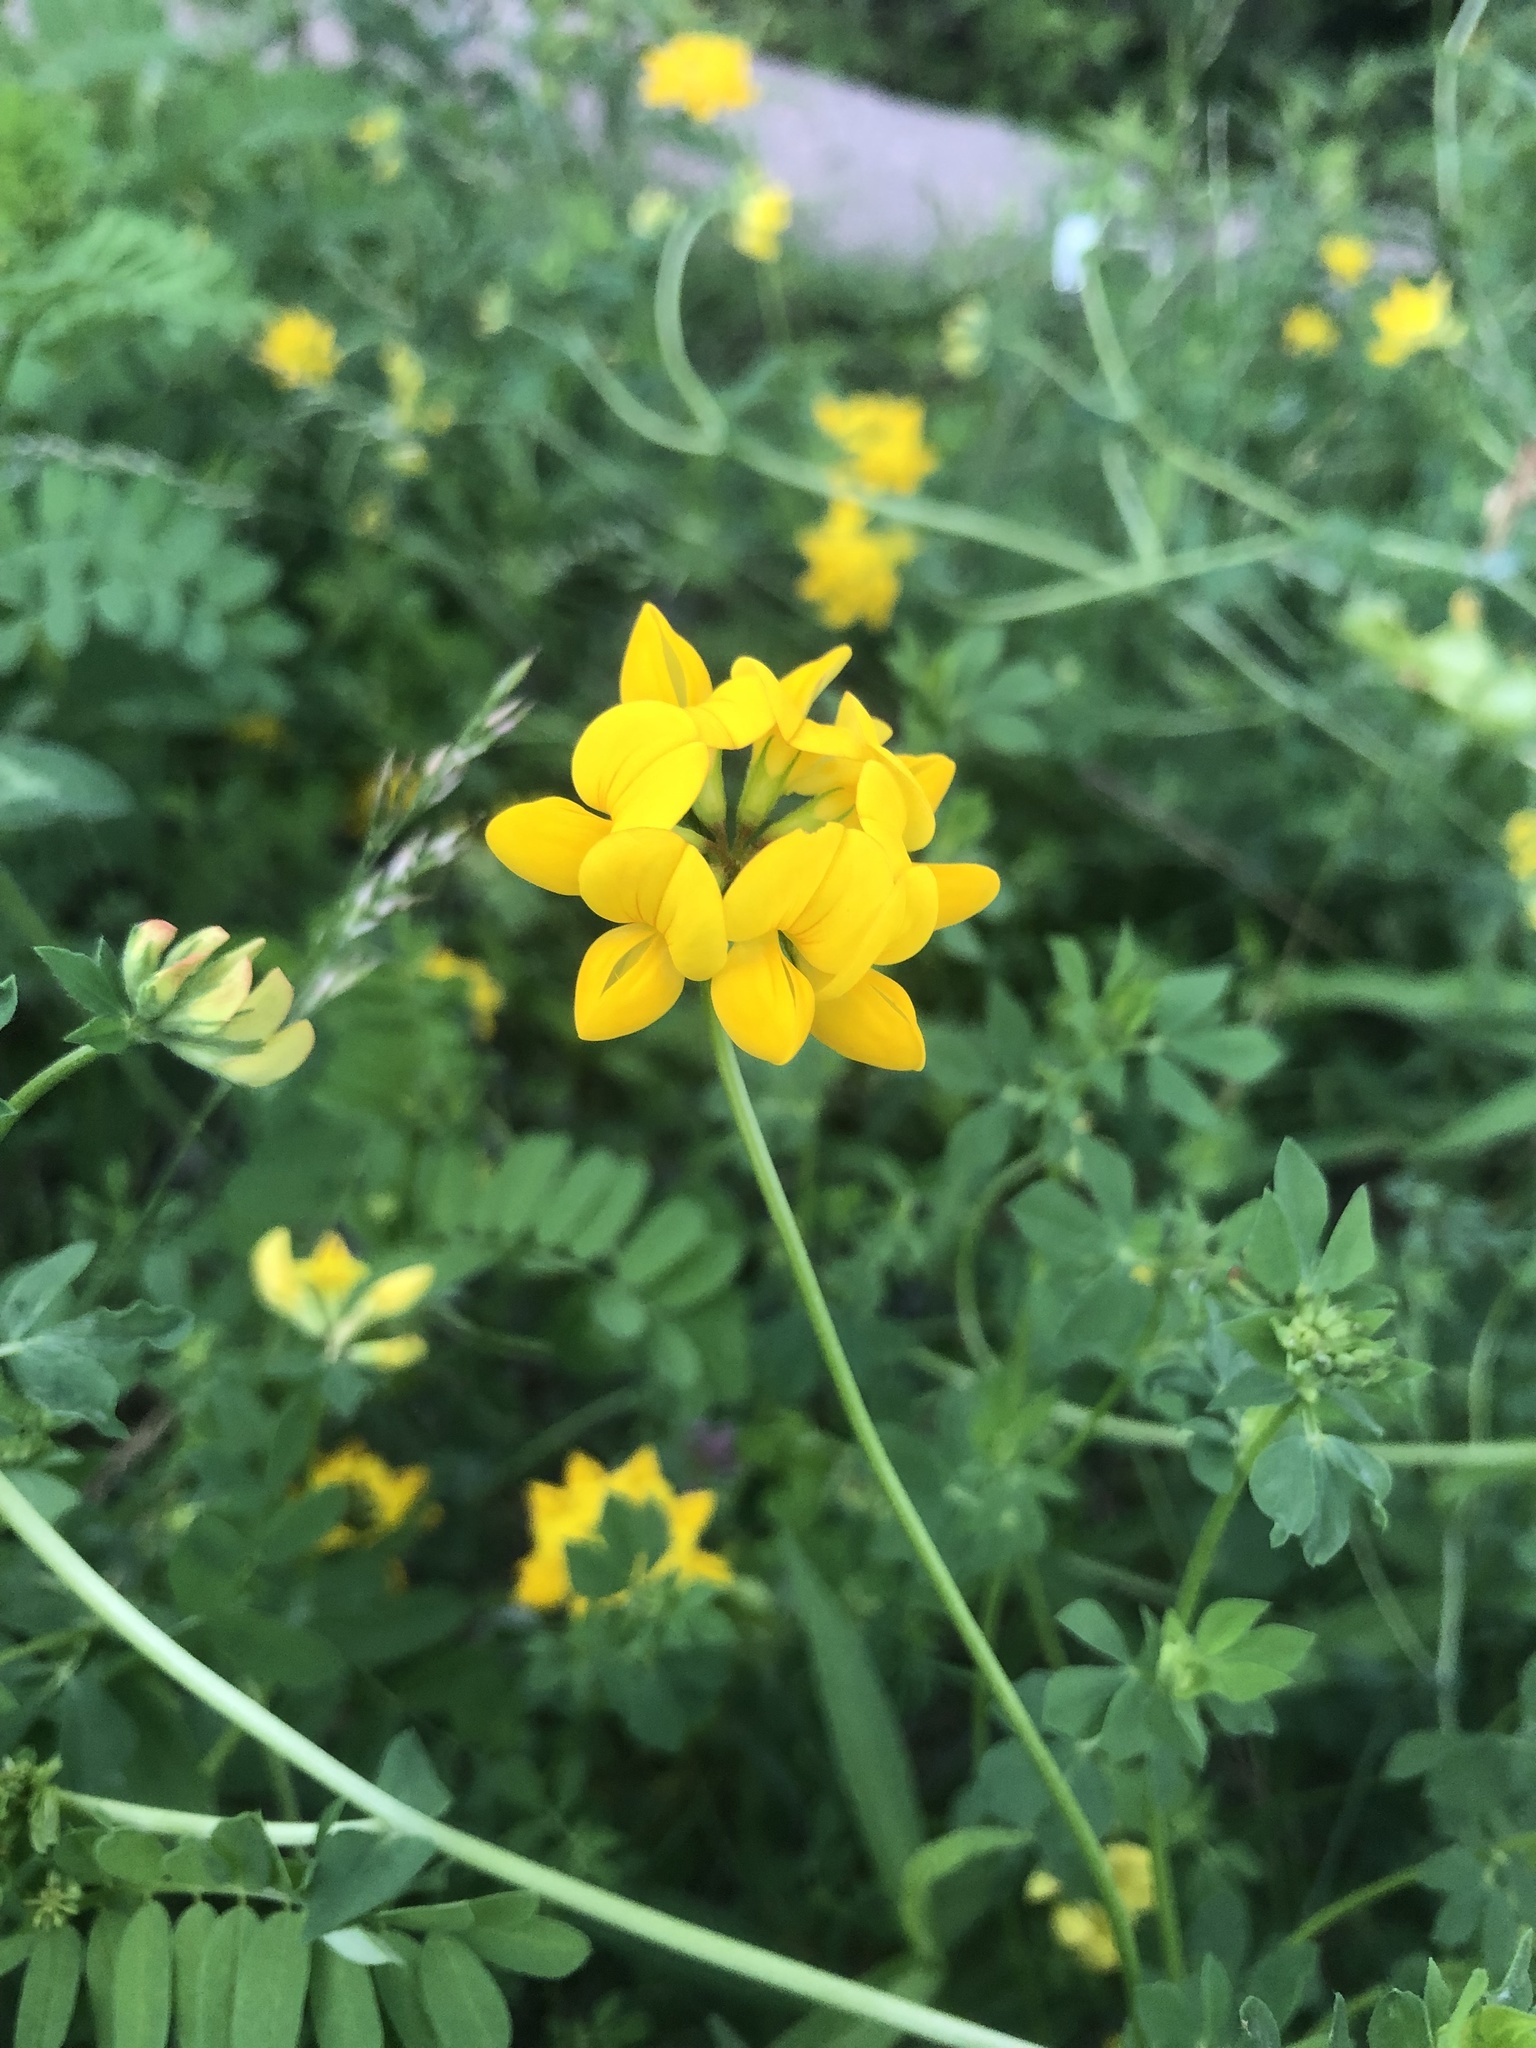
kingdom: Plantae
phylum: Tracheophyta
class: Magnoliopsida
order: Fabales
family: Fabaceae
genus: Lotus
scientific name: Lotus corniculatus
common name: Common bird's-foot-trefoil
